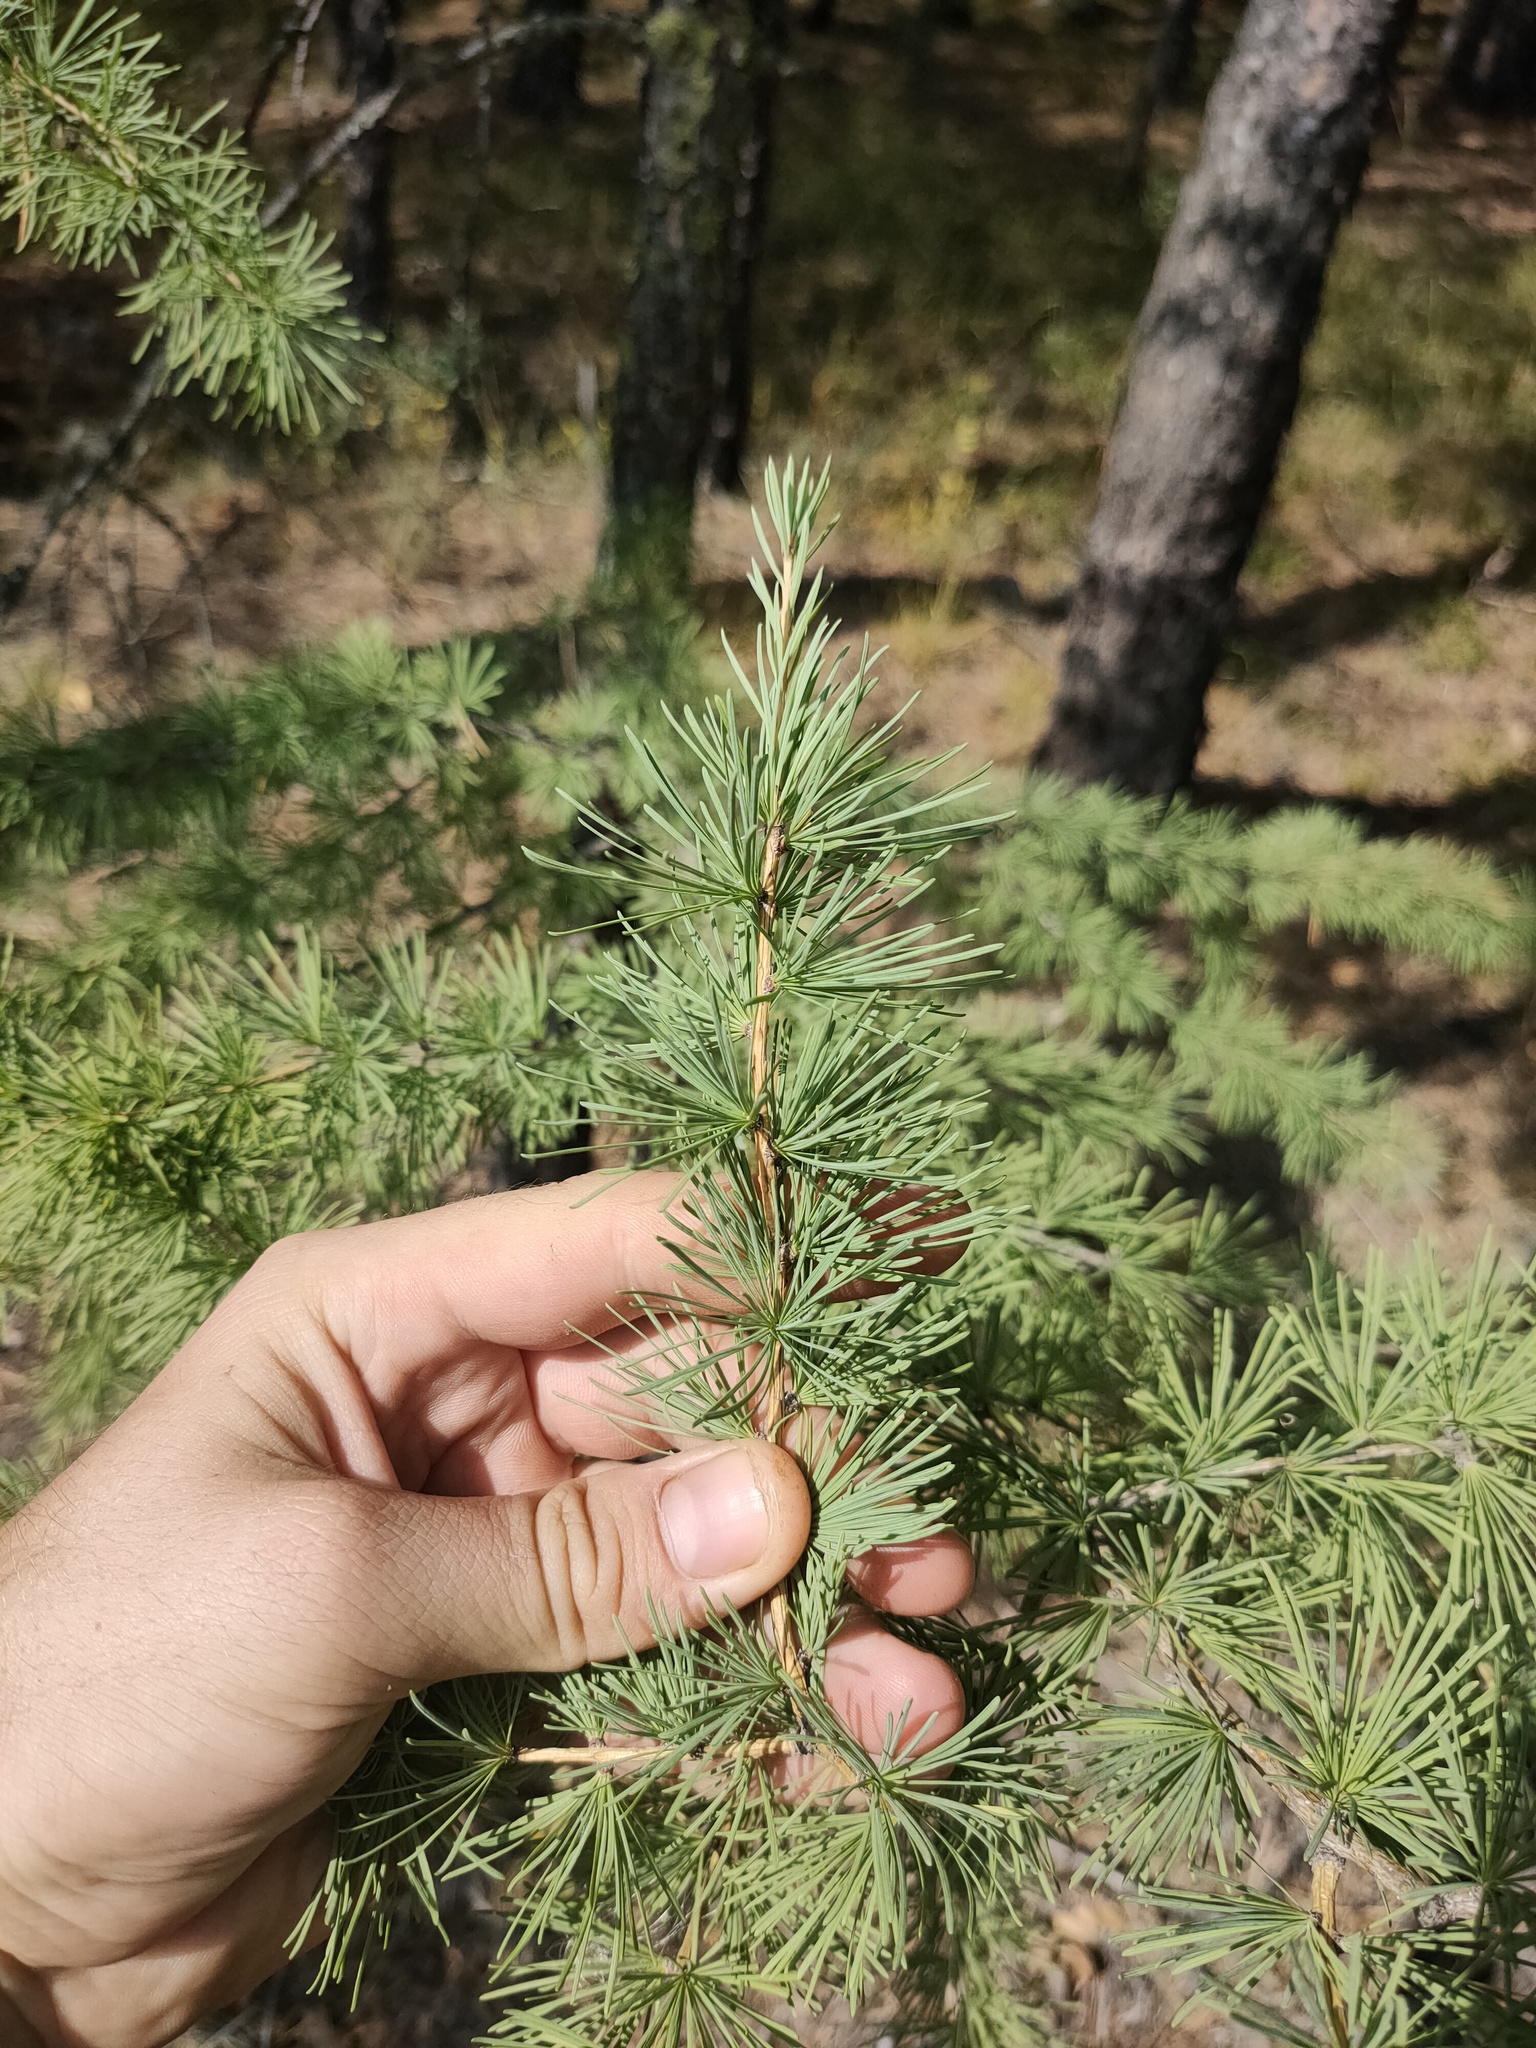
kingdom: Plantae
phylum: Tracheophyta
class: Pinopsida
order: Pinales
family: Pinaceae
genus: Larix
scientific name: Larix sibirica
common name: Siberian larch
